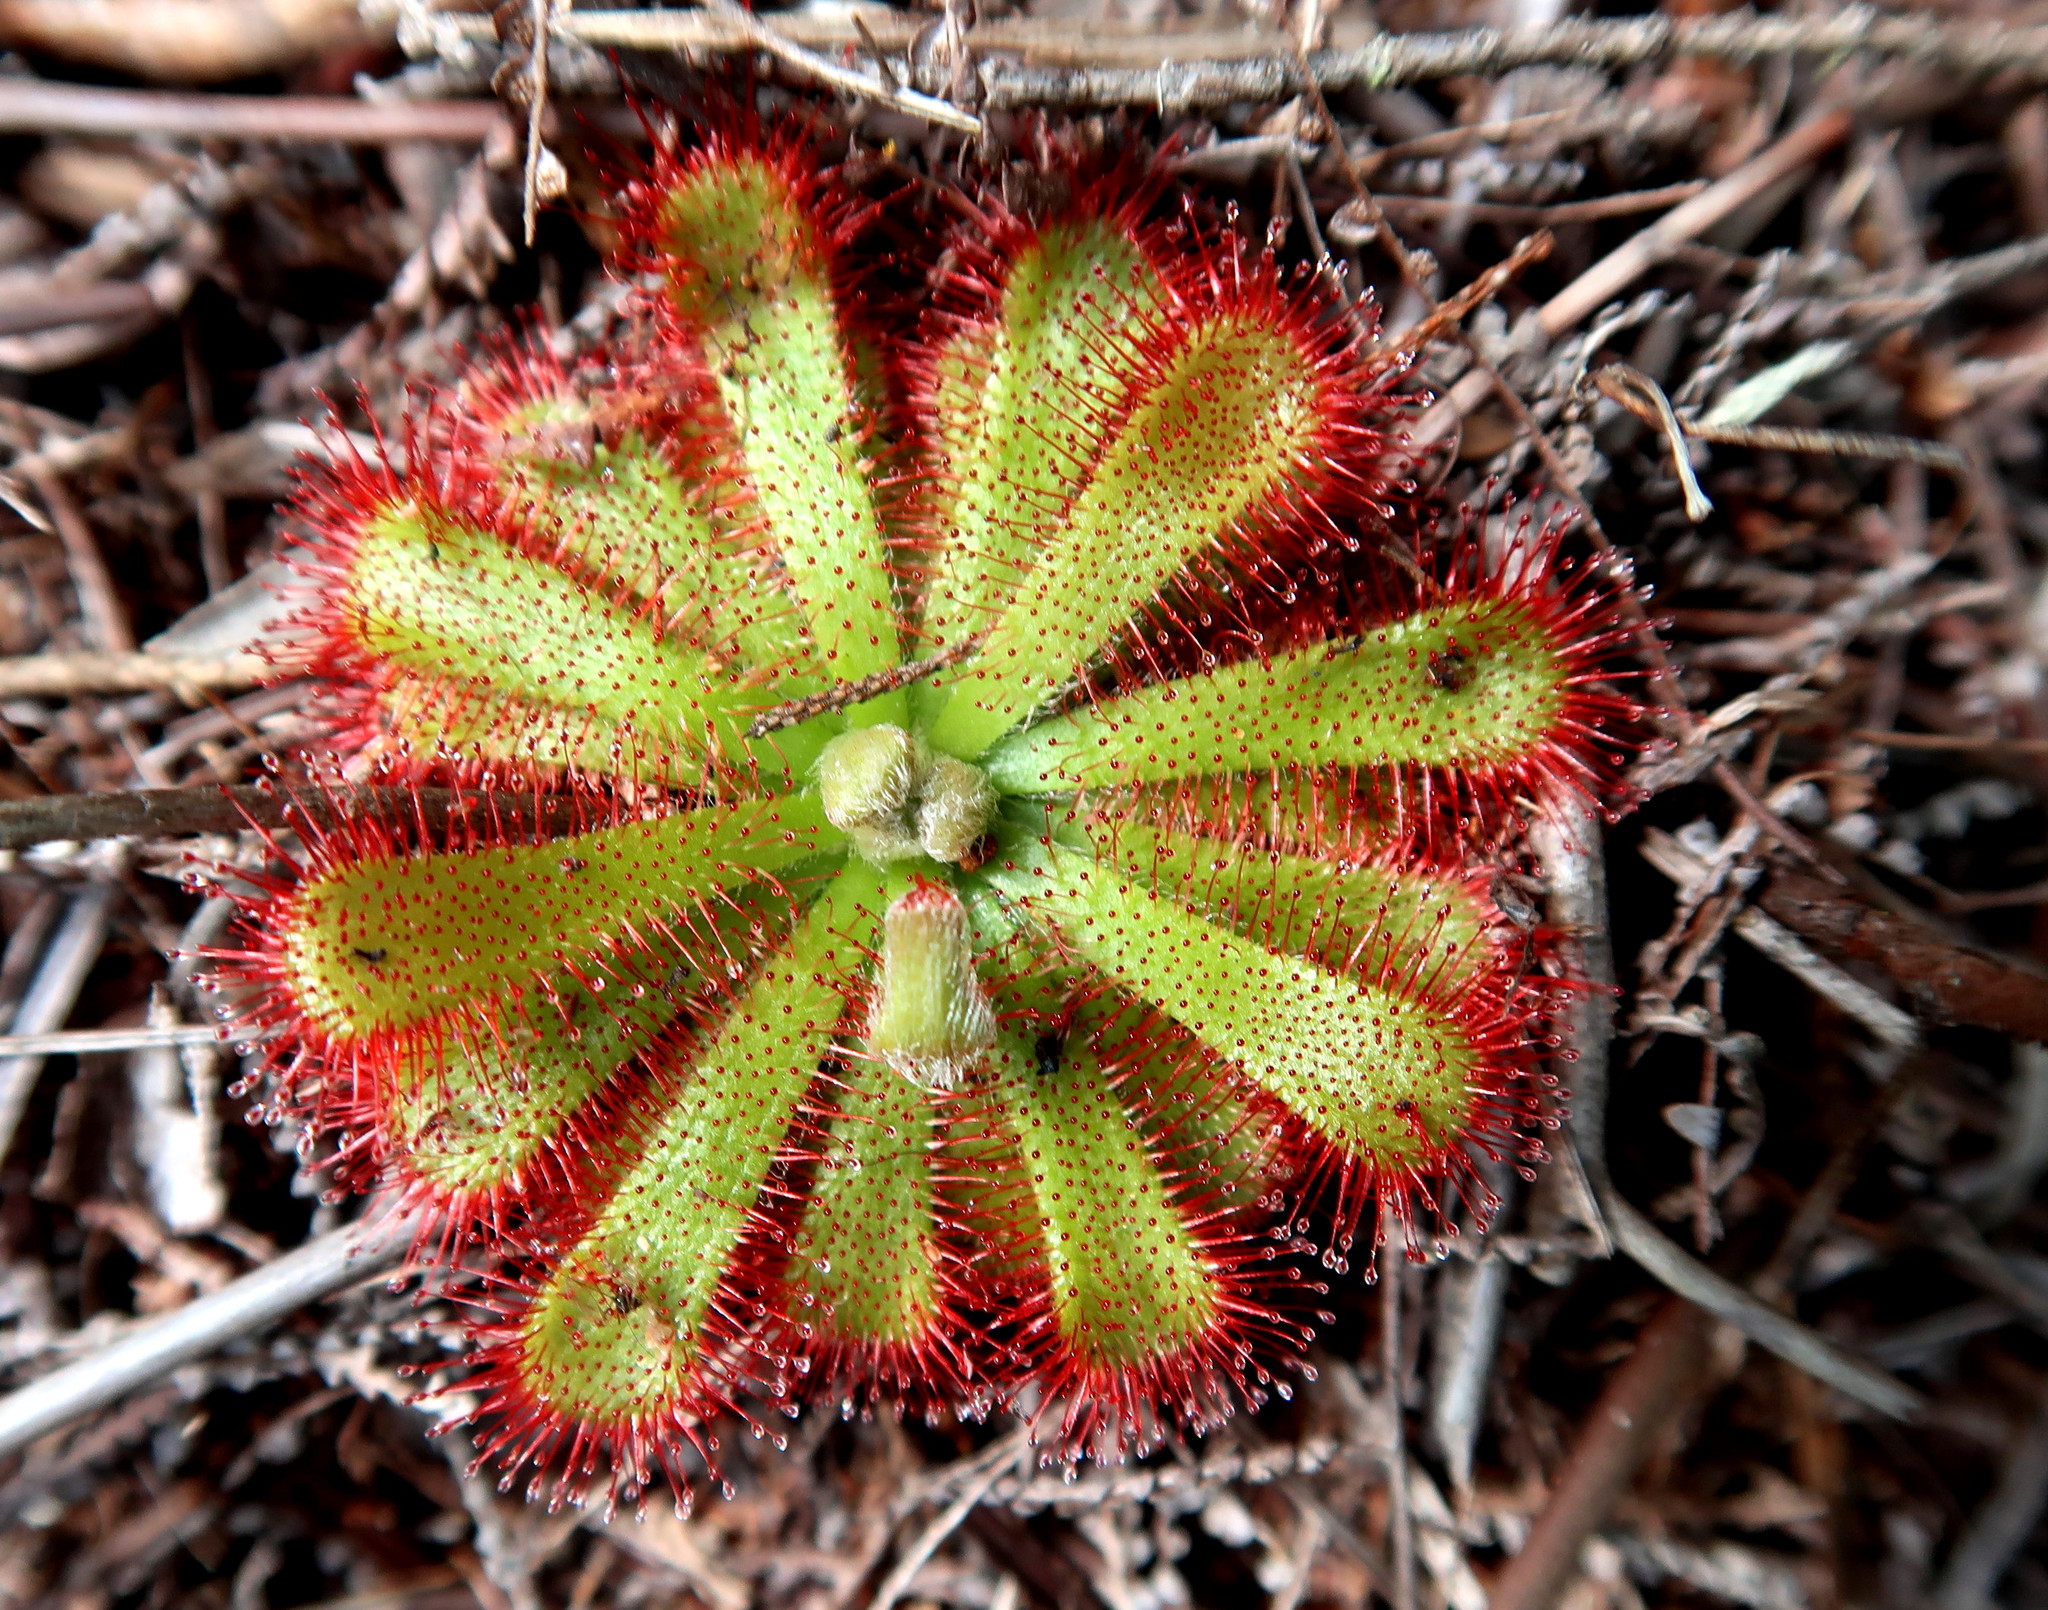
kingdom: Plantae
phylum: Tracheophyta
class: Magnoliopsida
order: Caryophyllales
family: Droseraceae
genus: Drosera
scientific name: Drosera aliciae
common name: Alice sundew
